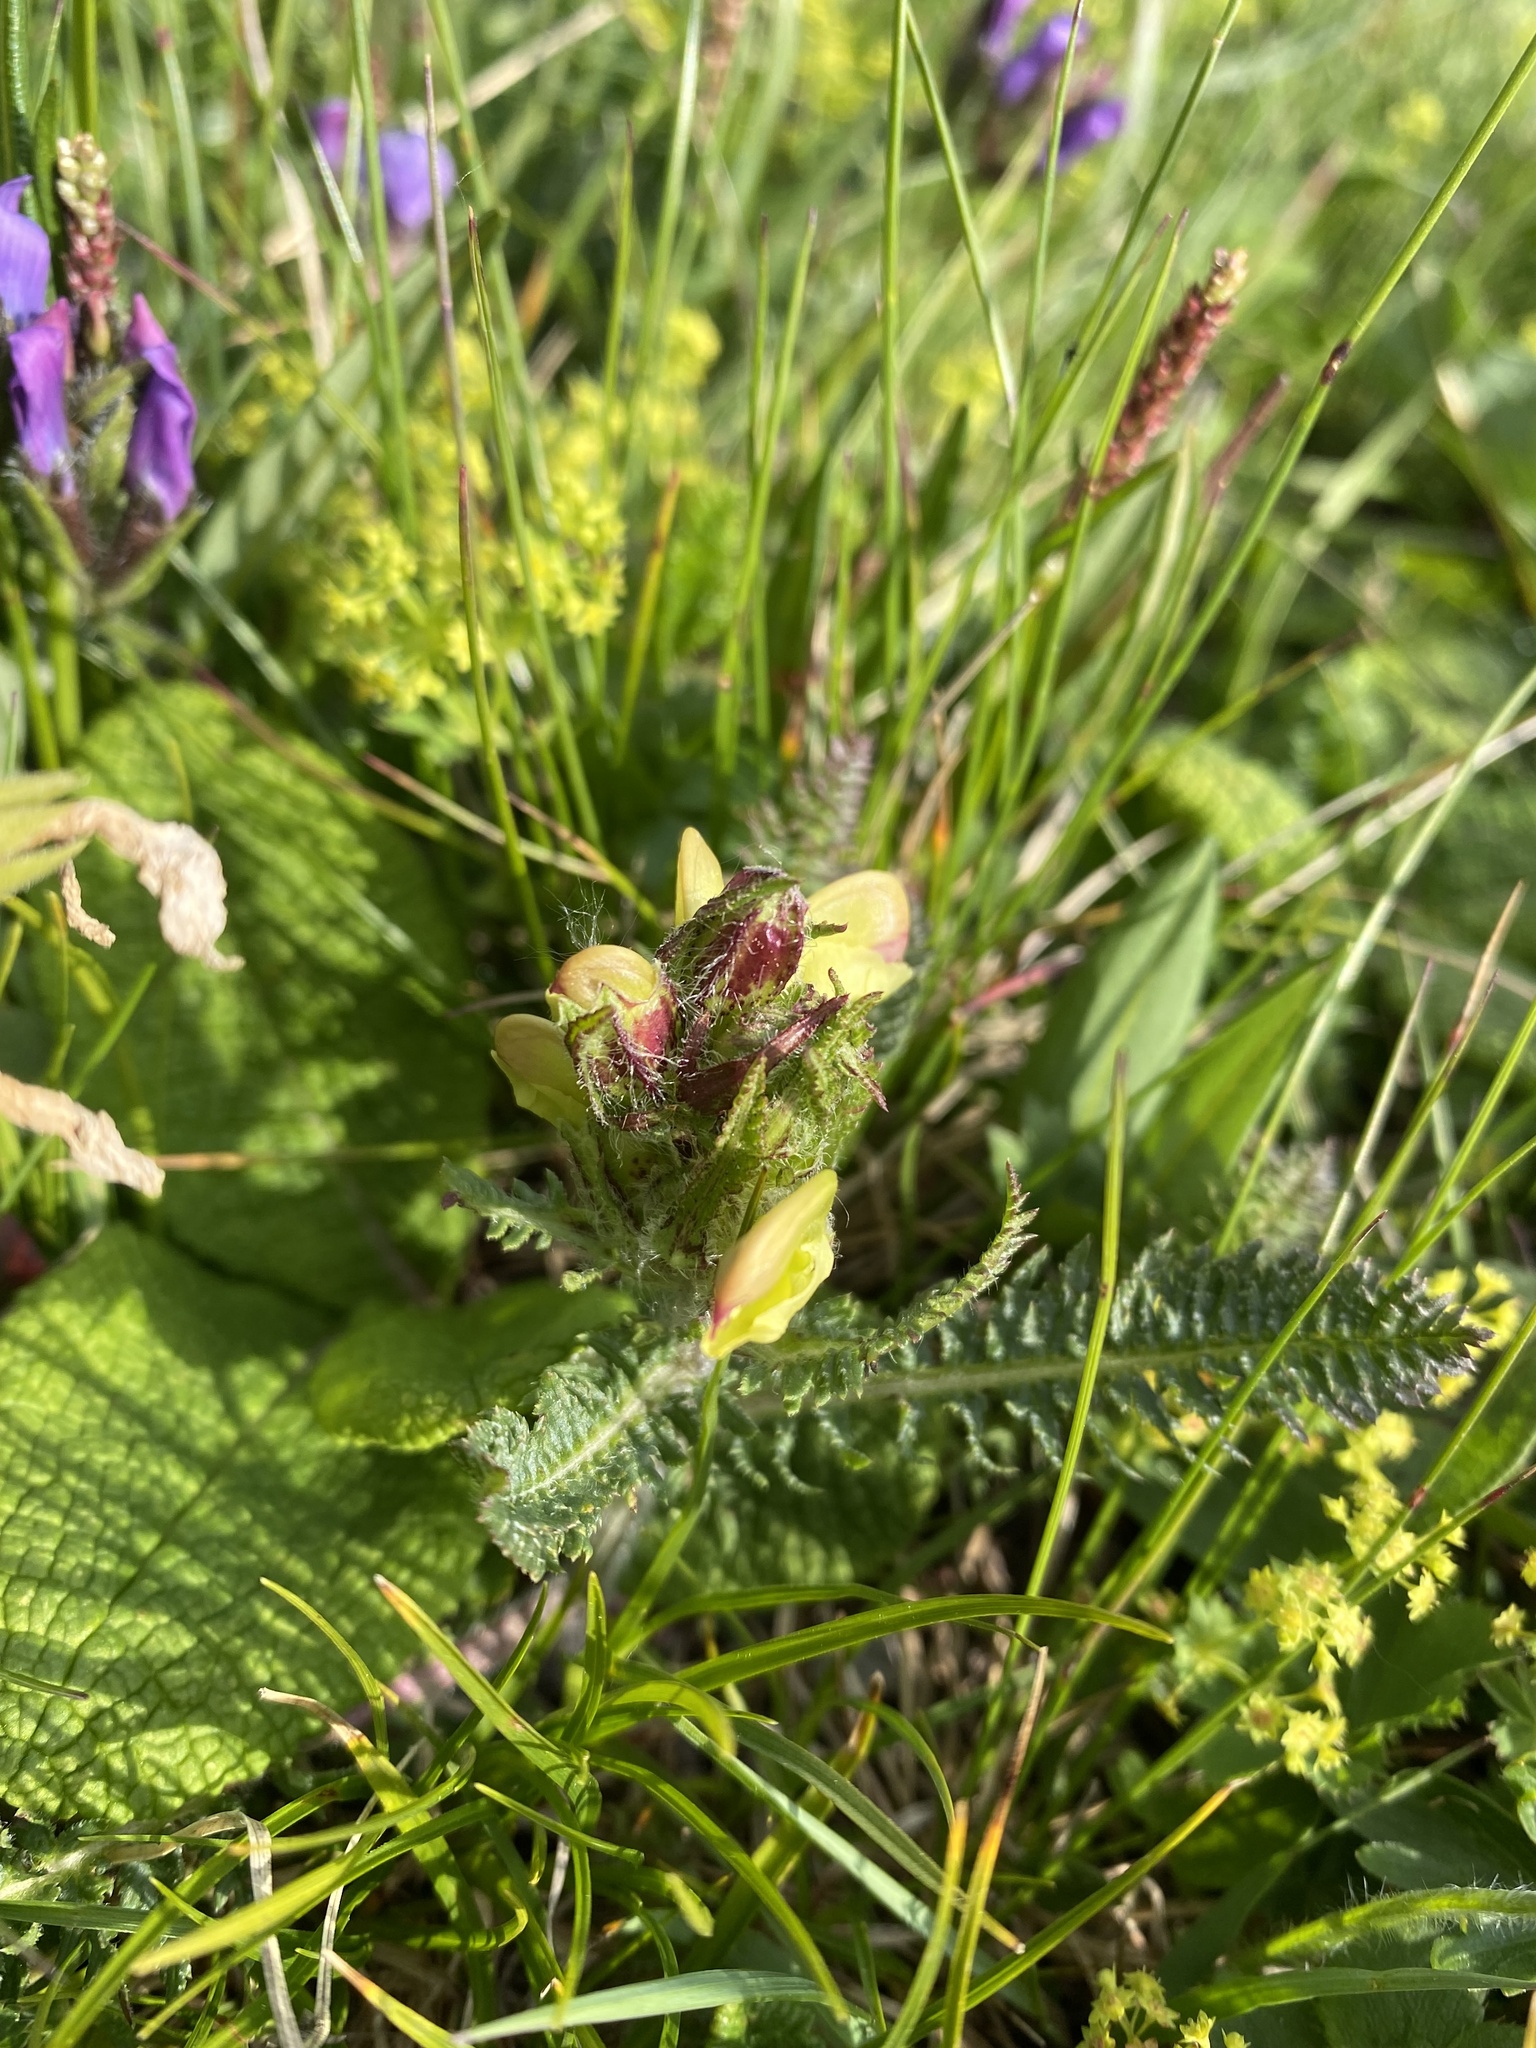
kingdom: Plantae
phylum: Tracheophyta
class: Magnoliopsida
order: Lamiales
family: Orobanchaceae
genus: Pedicularis
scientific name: Pedicularis chroorrhyncha
